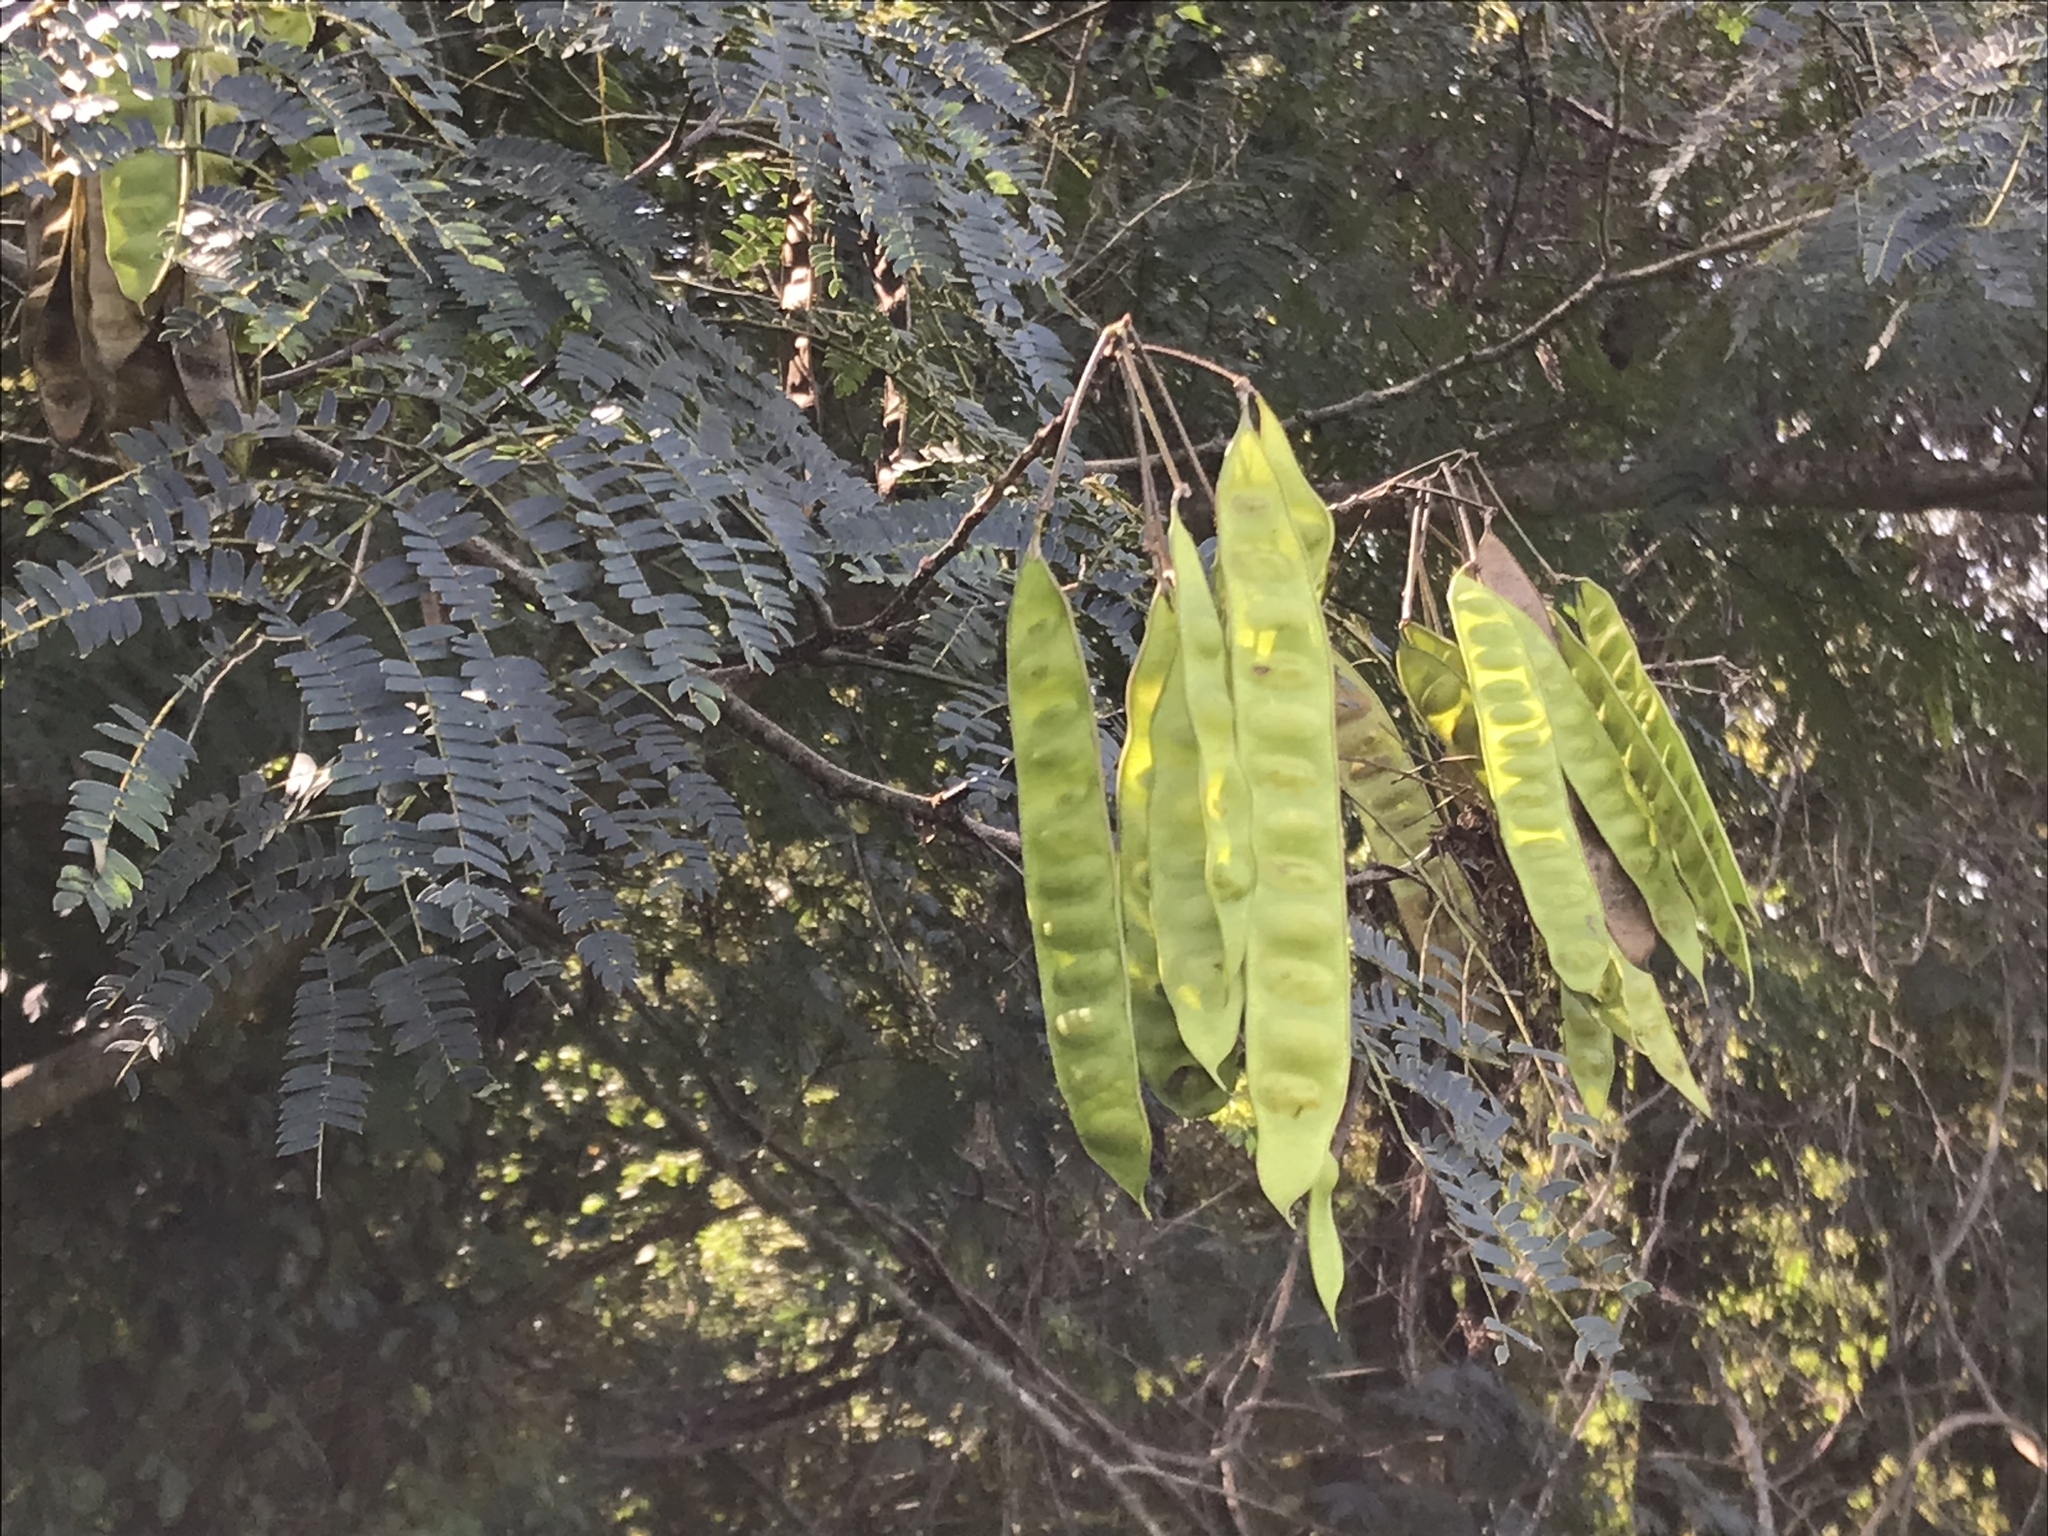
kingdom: Plantae
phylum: Tracheophyta
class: Magnoliopsida
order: Fabales
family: Fabaceae
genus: Albizia
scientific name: Albizia julibrissin
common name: Silktree
